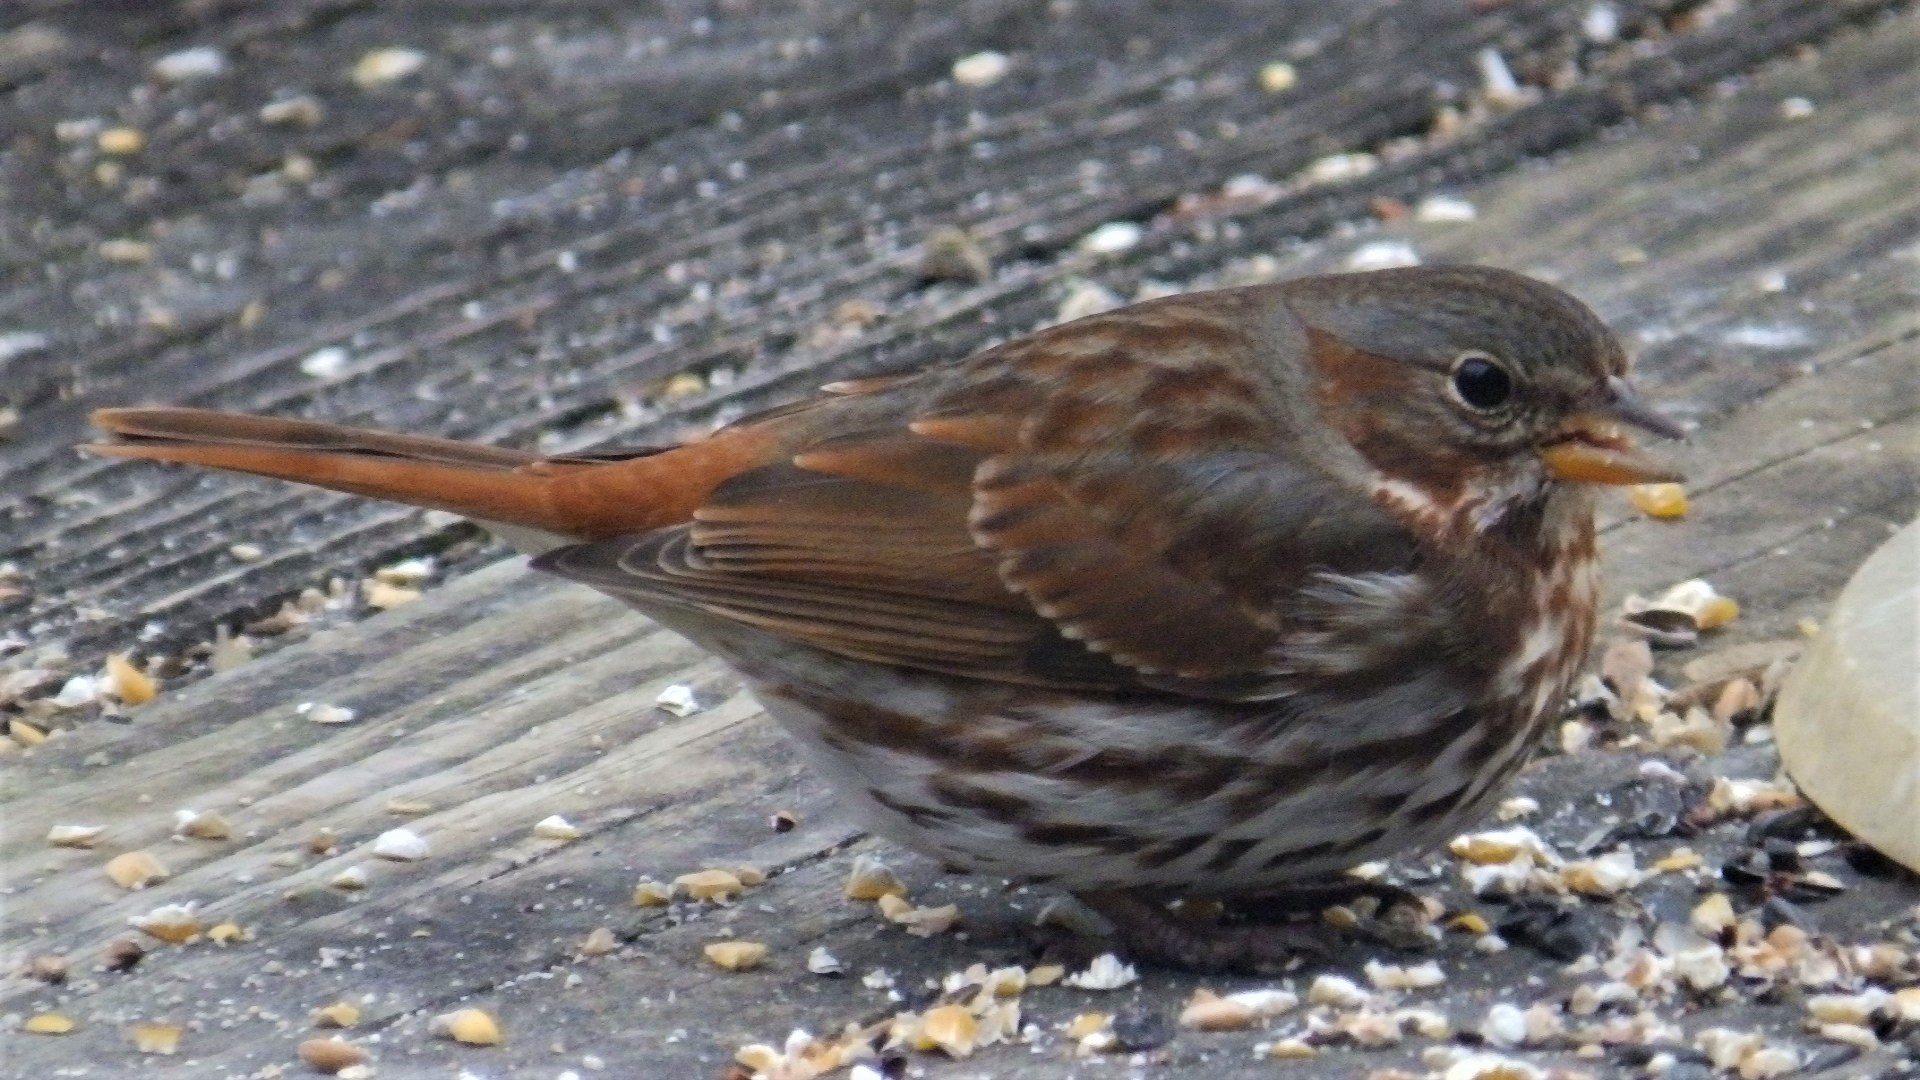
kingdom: Animalia
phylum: Chordata
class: Aves
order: Passeriformes
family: Passerellidae
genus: Passerella
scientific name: Passerella iliaca
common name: Fox sparrow
